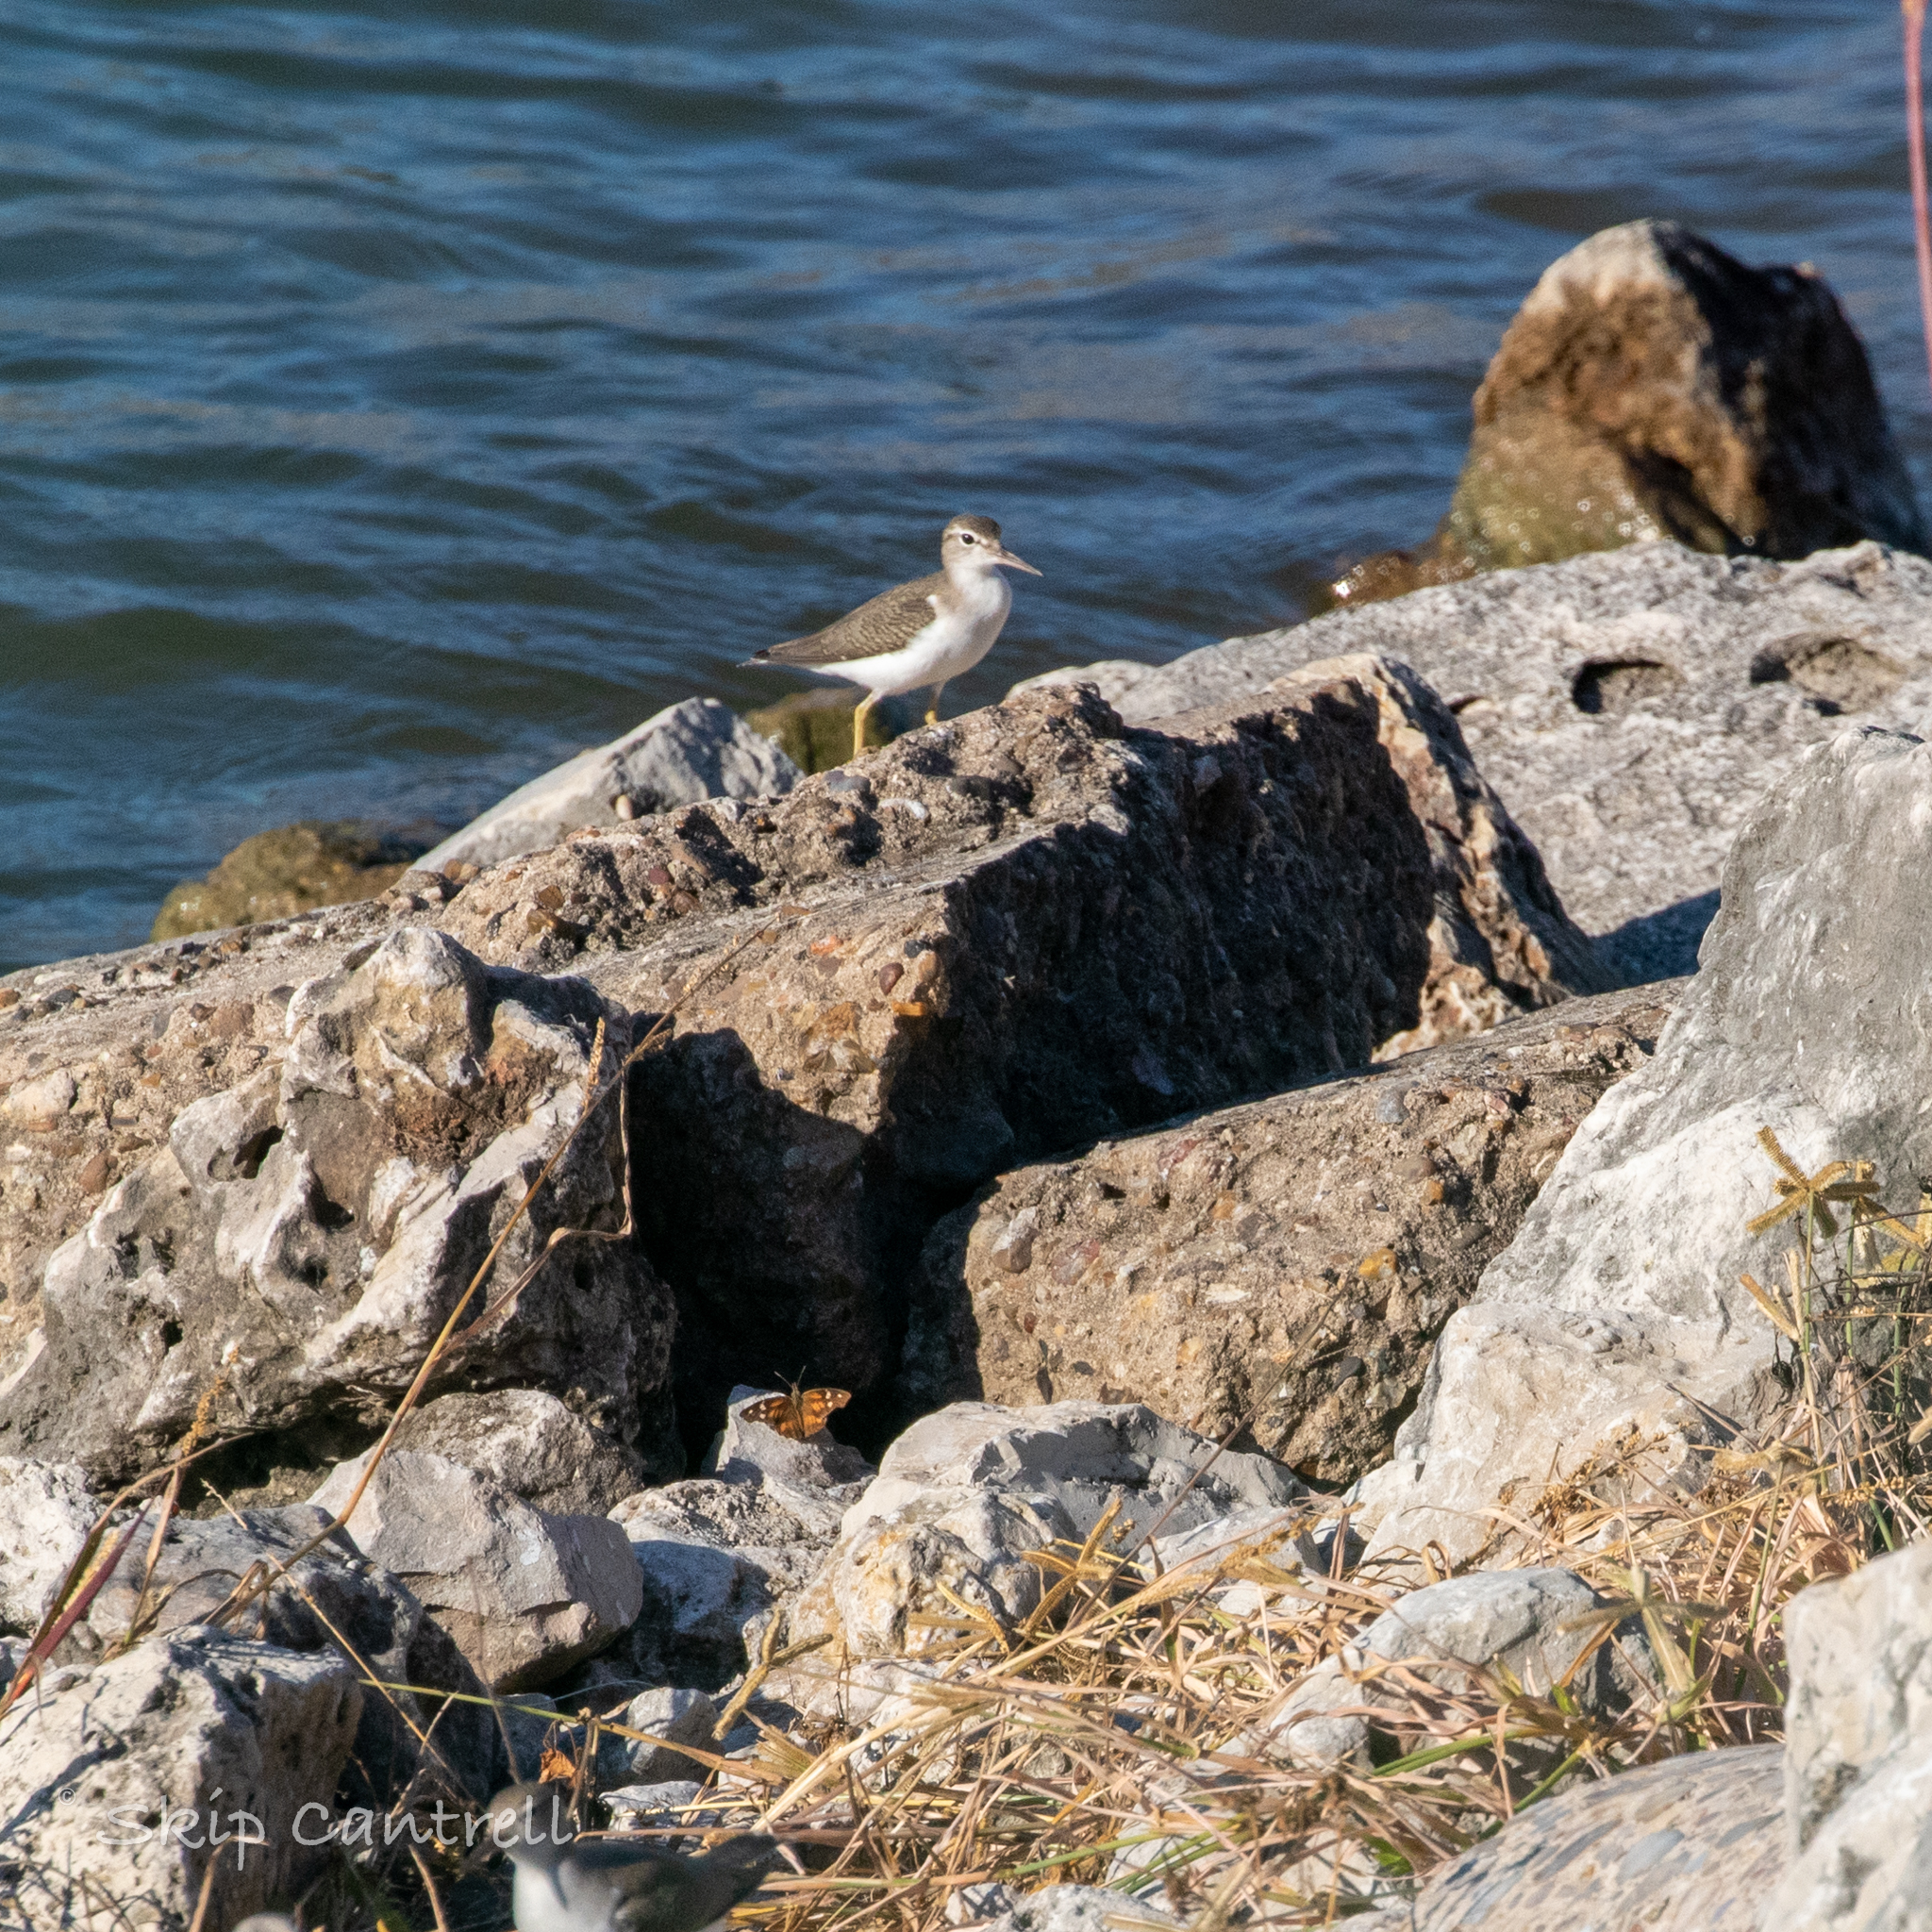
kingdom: Animalia
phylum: Chordata
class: Aves
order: Charadriiformes
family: Scolopacidae
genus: Actitis
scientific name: Actitis macularius
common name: Spotted sandpiper
